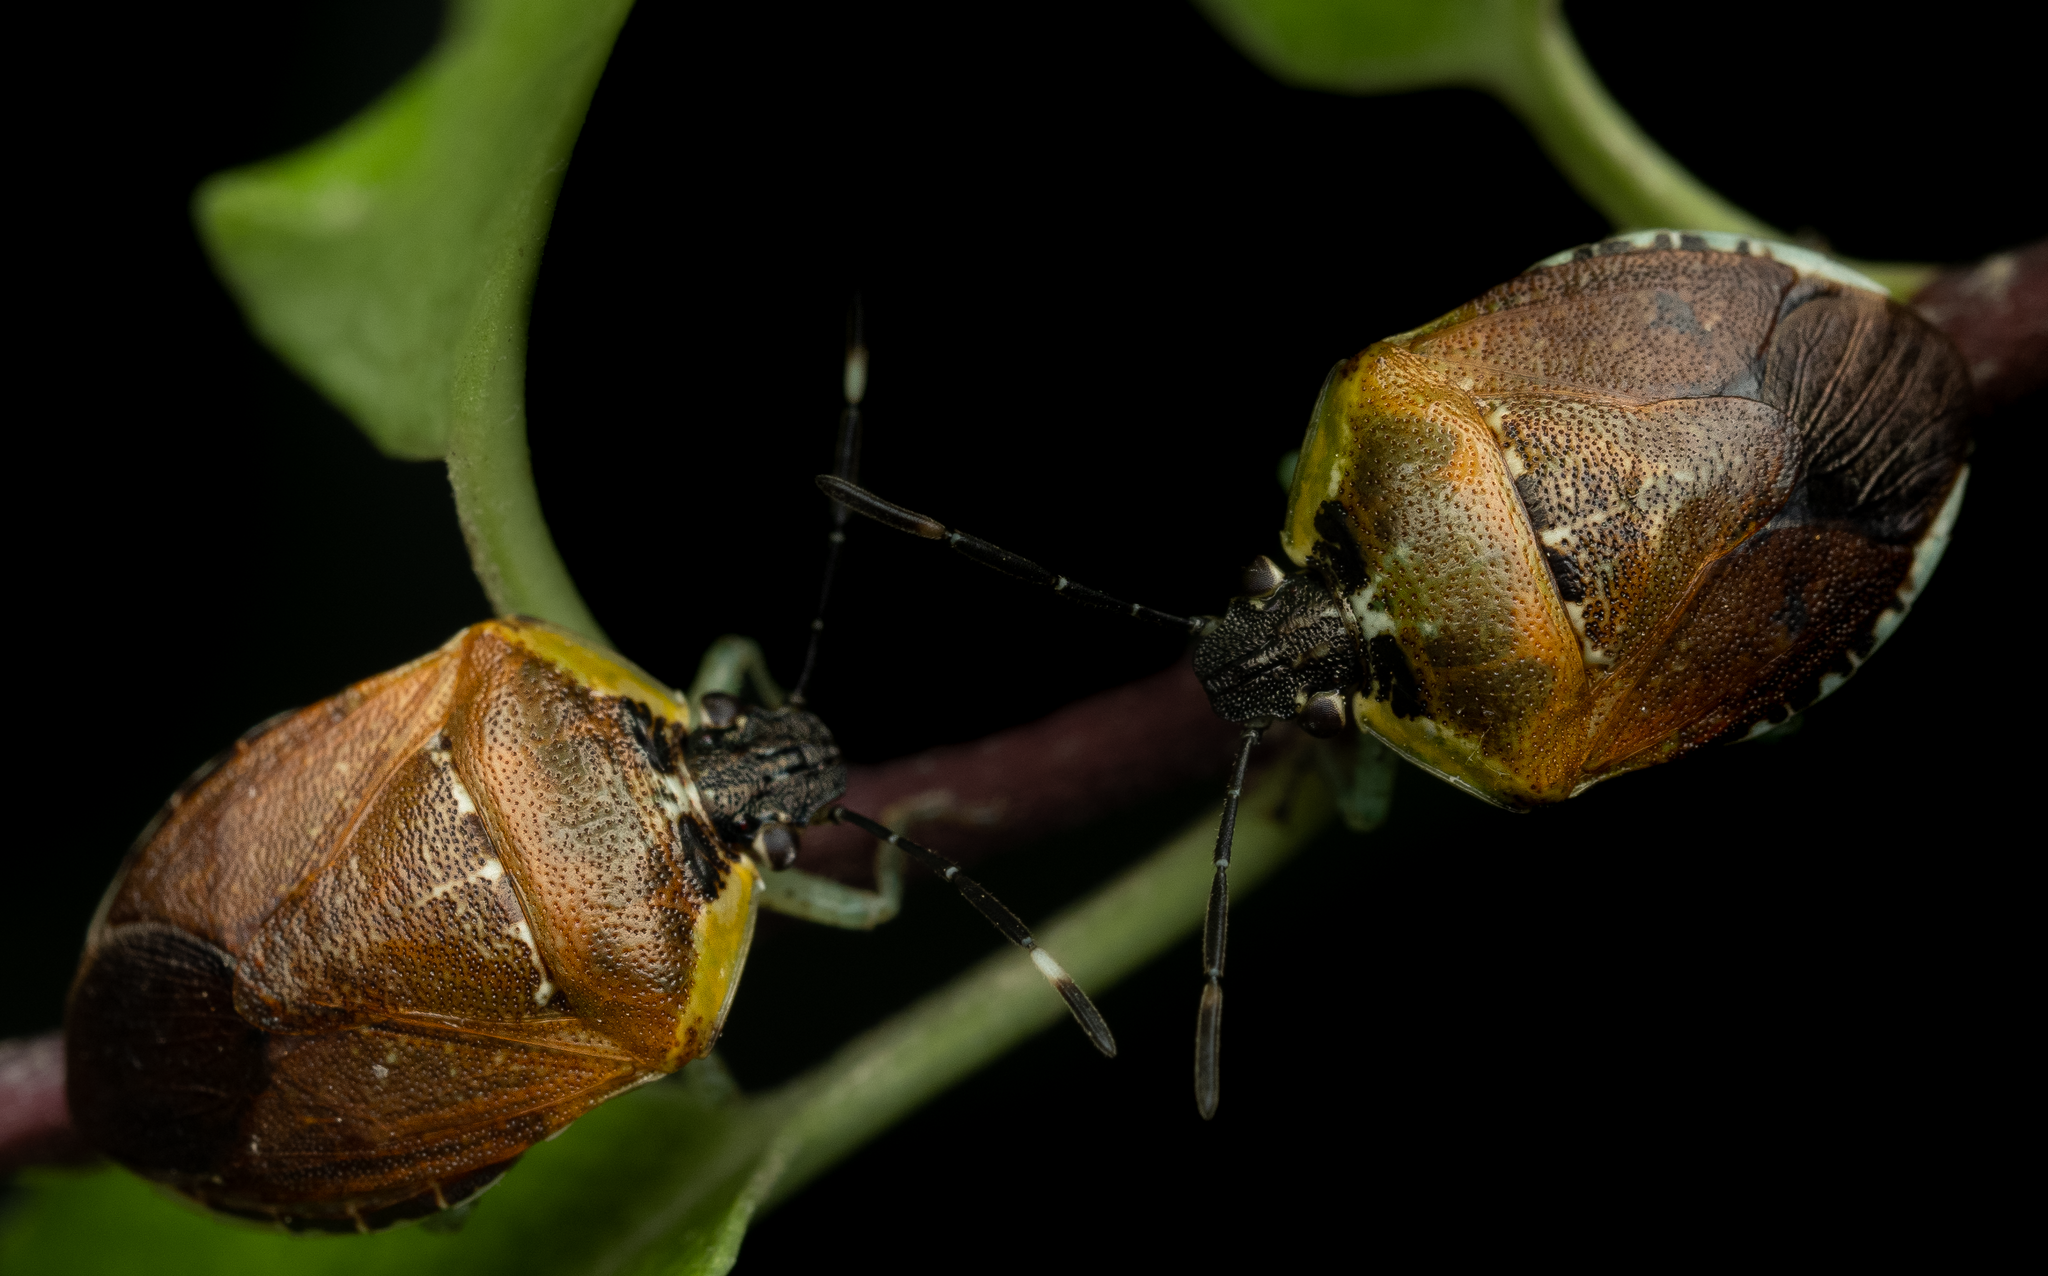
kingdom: Animalia
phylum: Arthropoda
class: Insecta
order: Hemiptera
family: Pentatomidae
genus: Monteithiella
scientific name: Monteithiella
